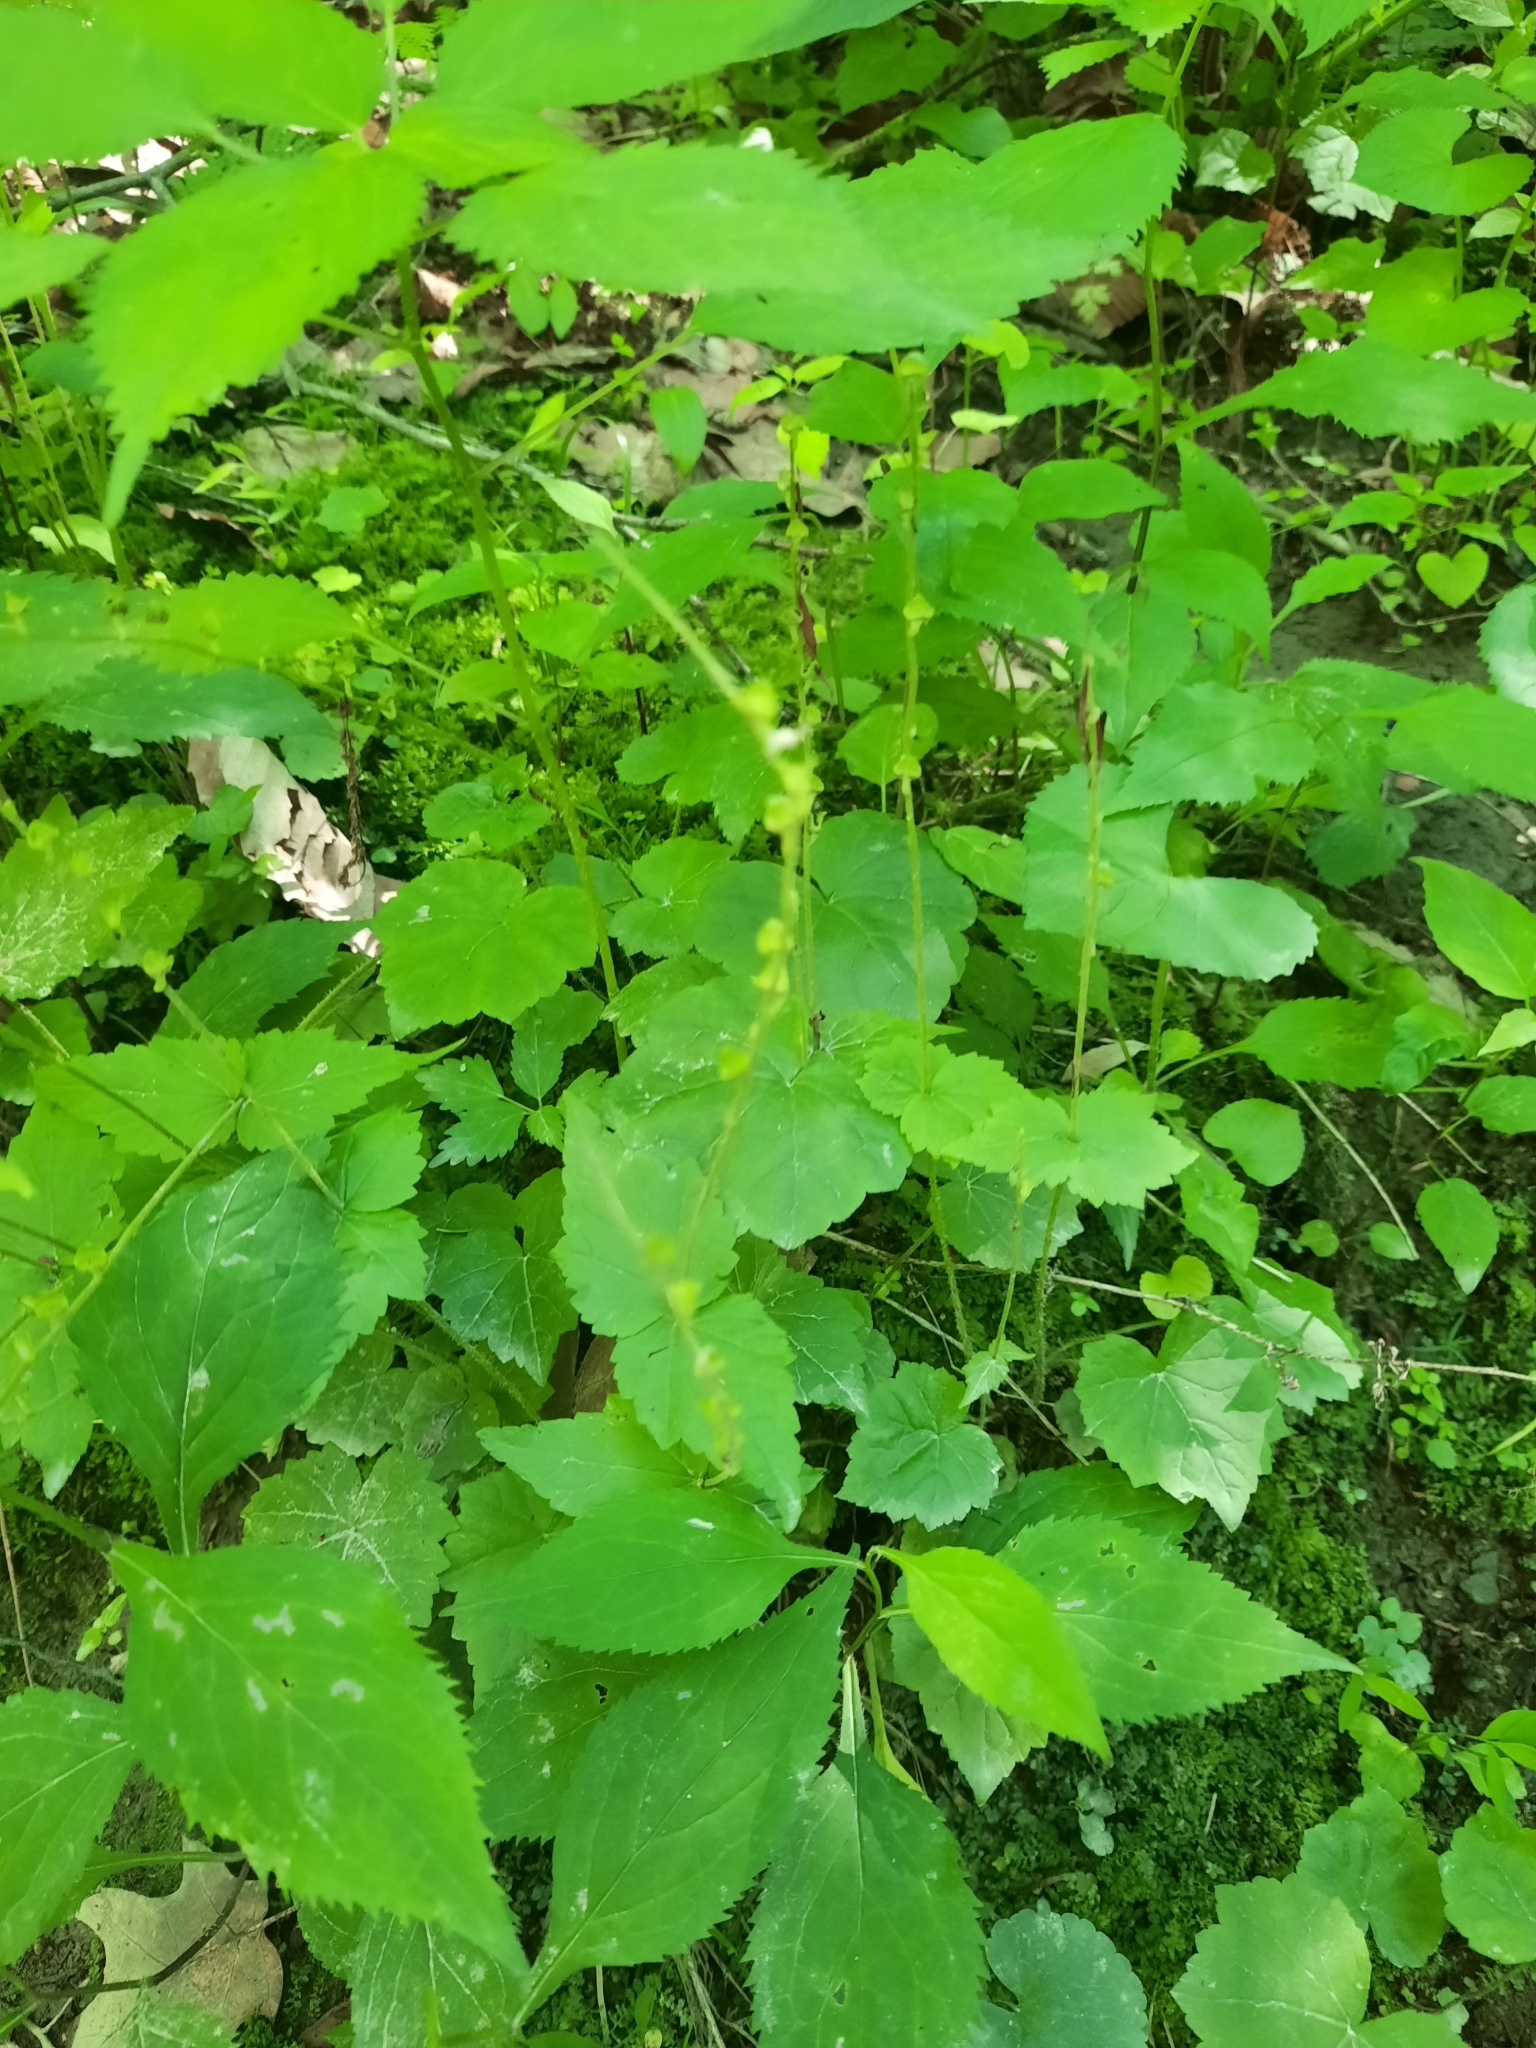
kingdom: Plantae
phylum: Tracheophyta
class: Magnoliopsida
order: Saxifragales
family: Saxifragaceae
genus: Mitella
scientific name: Mitella diphylla
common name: Coolwort
